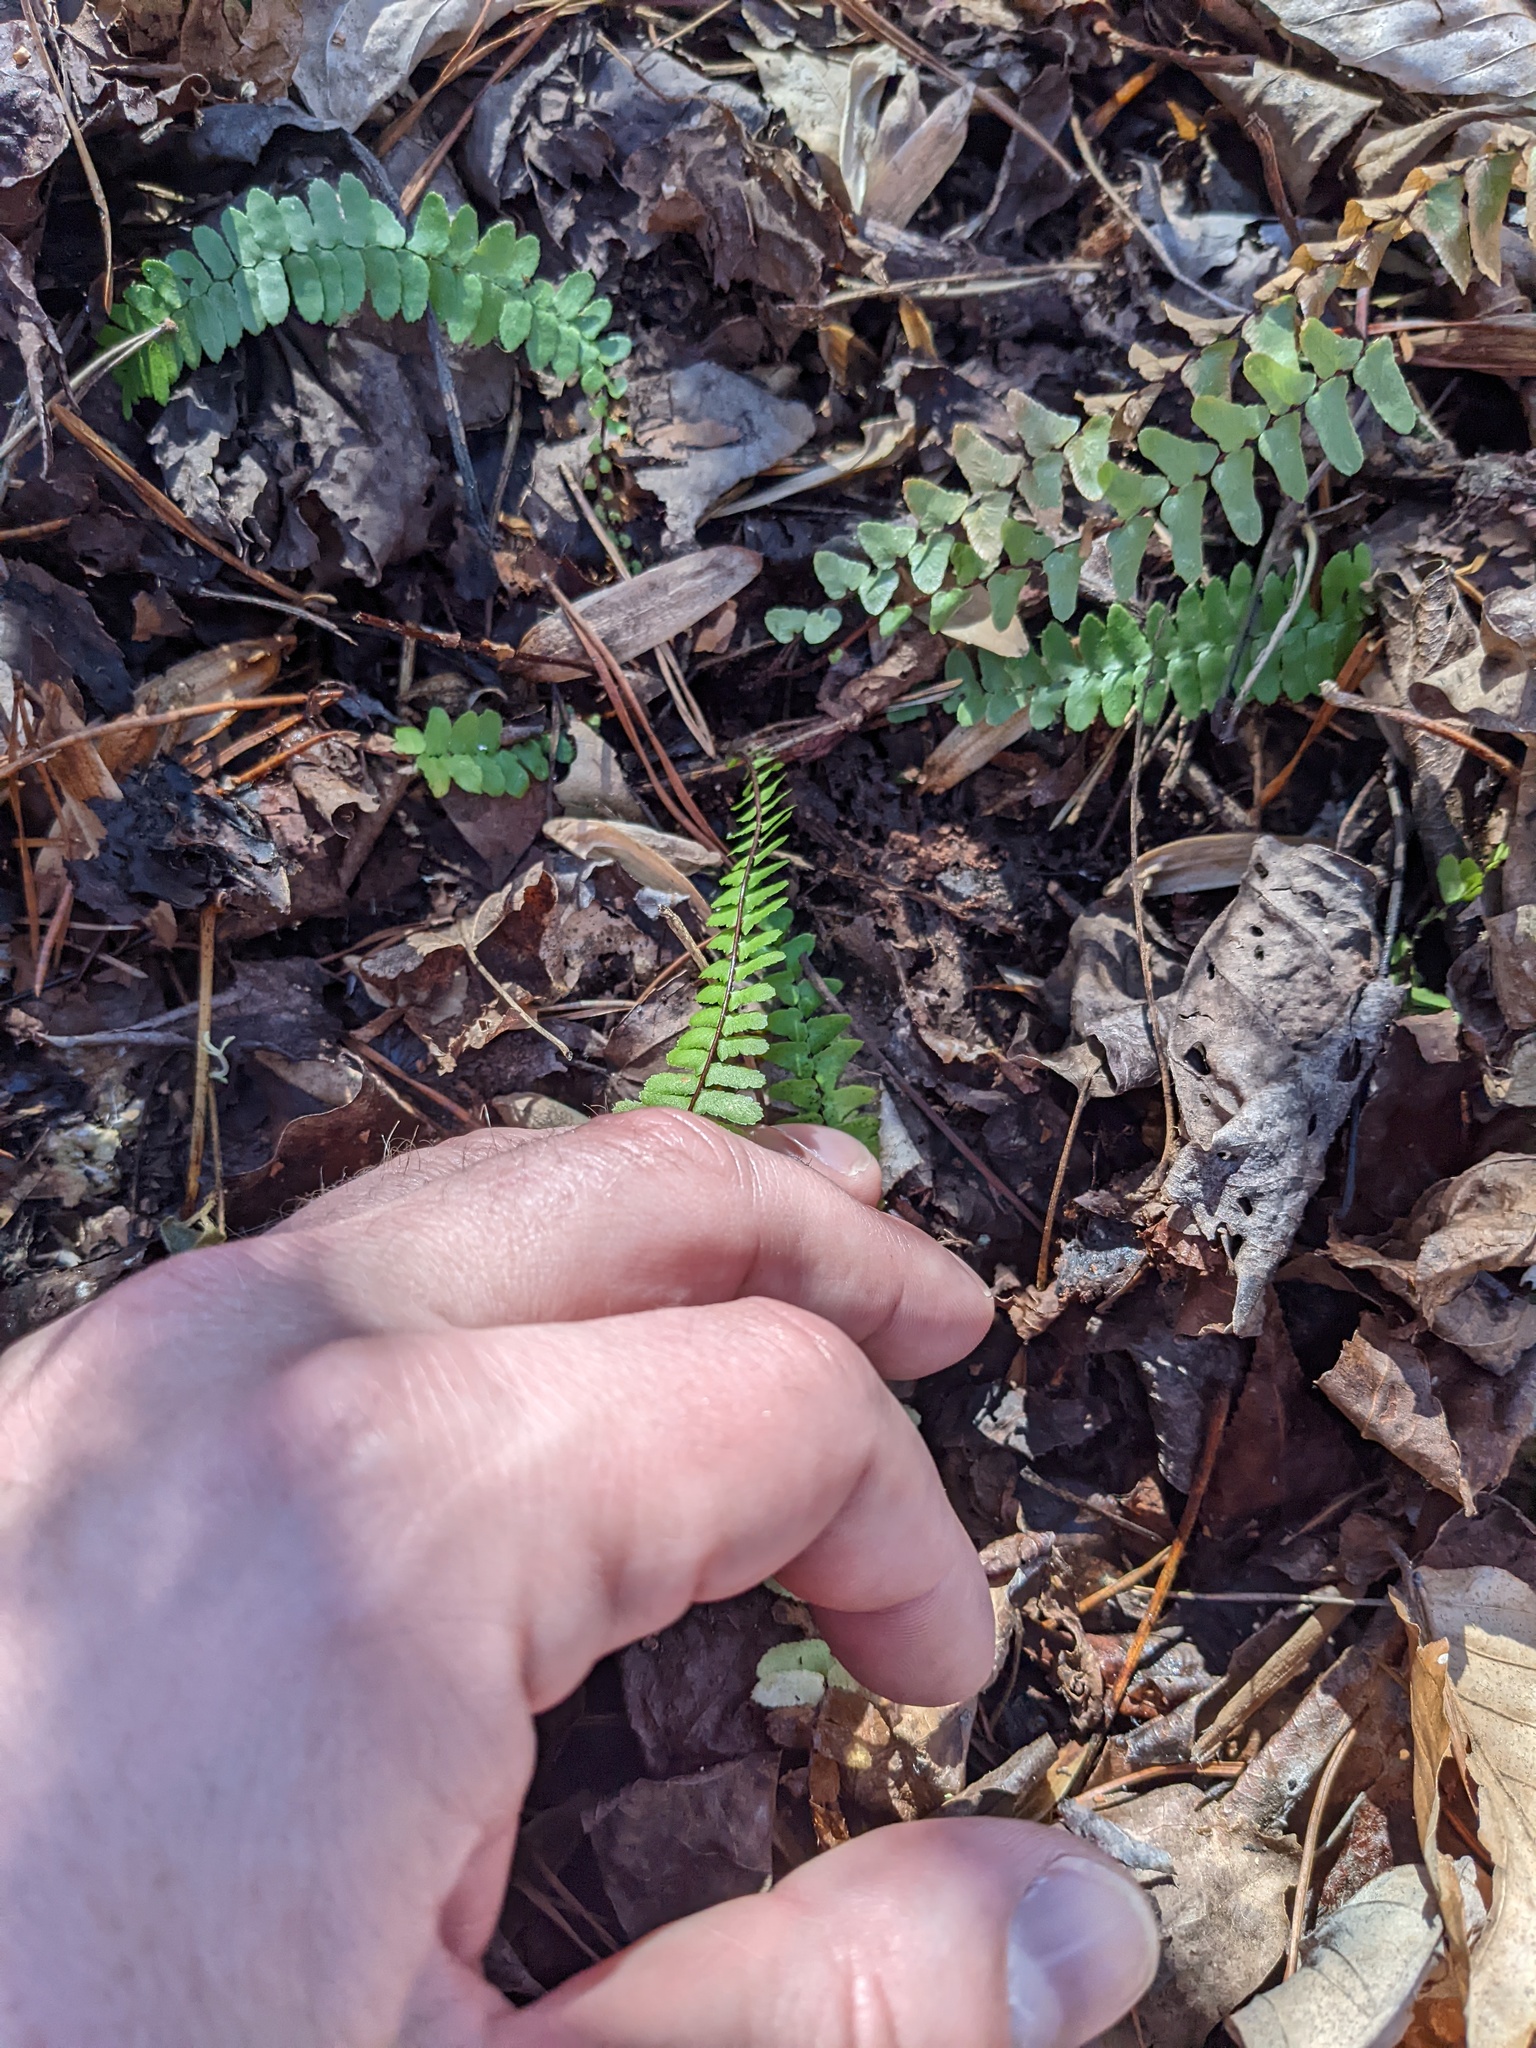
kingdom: Plantae
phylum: Tracheophyta
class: Polypodiopsida
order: Polypodiales
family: Aspleniaceae
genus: Asplenium
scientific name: Asplenium platyneuron
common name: Ebony spleenwort
